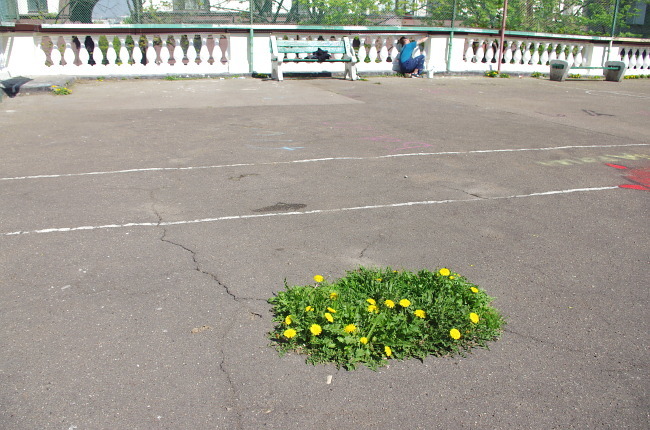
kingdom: Plantae
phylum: Tracheophyta
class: Magnoliopsida
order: Asterales
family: Asteraceae
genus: Taraxacum
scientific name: Taraxacum officinale
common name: Common dandelion
